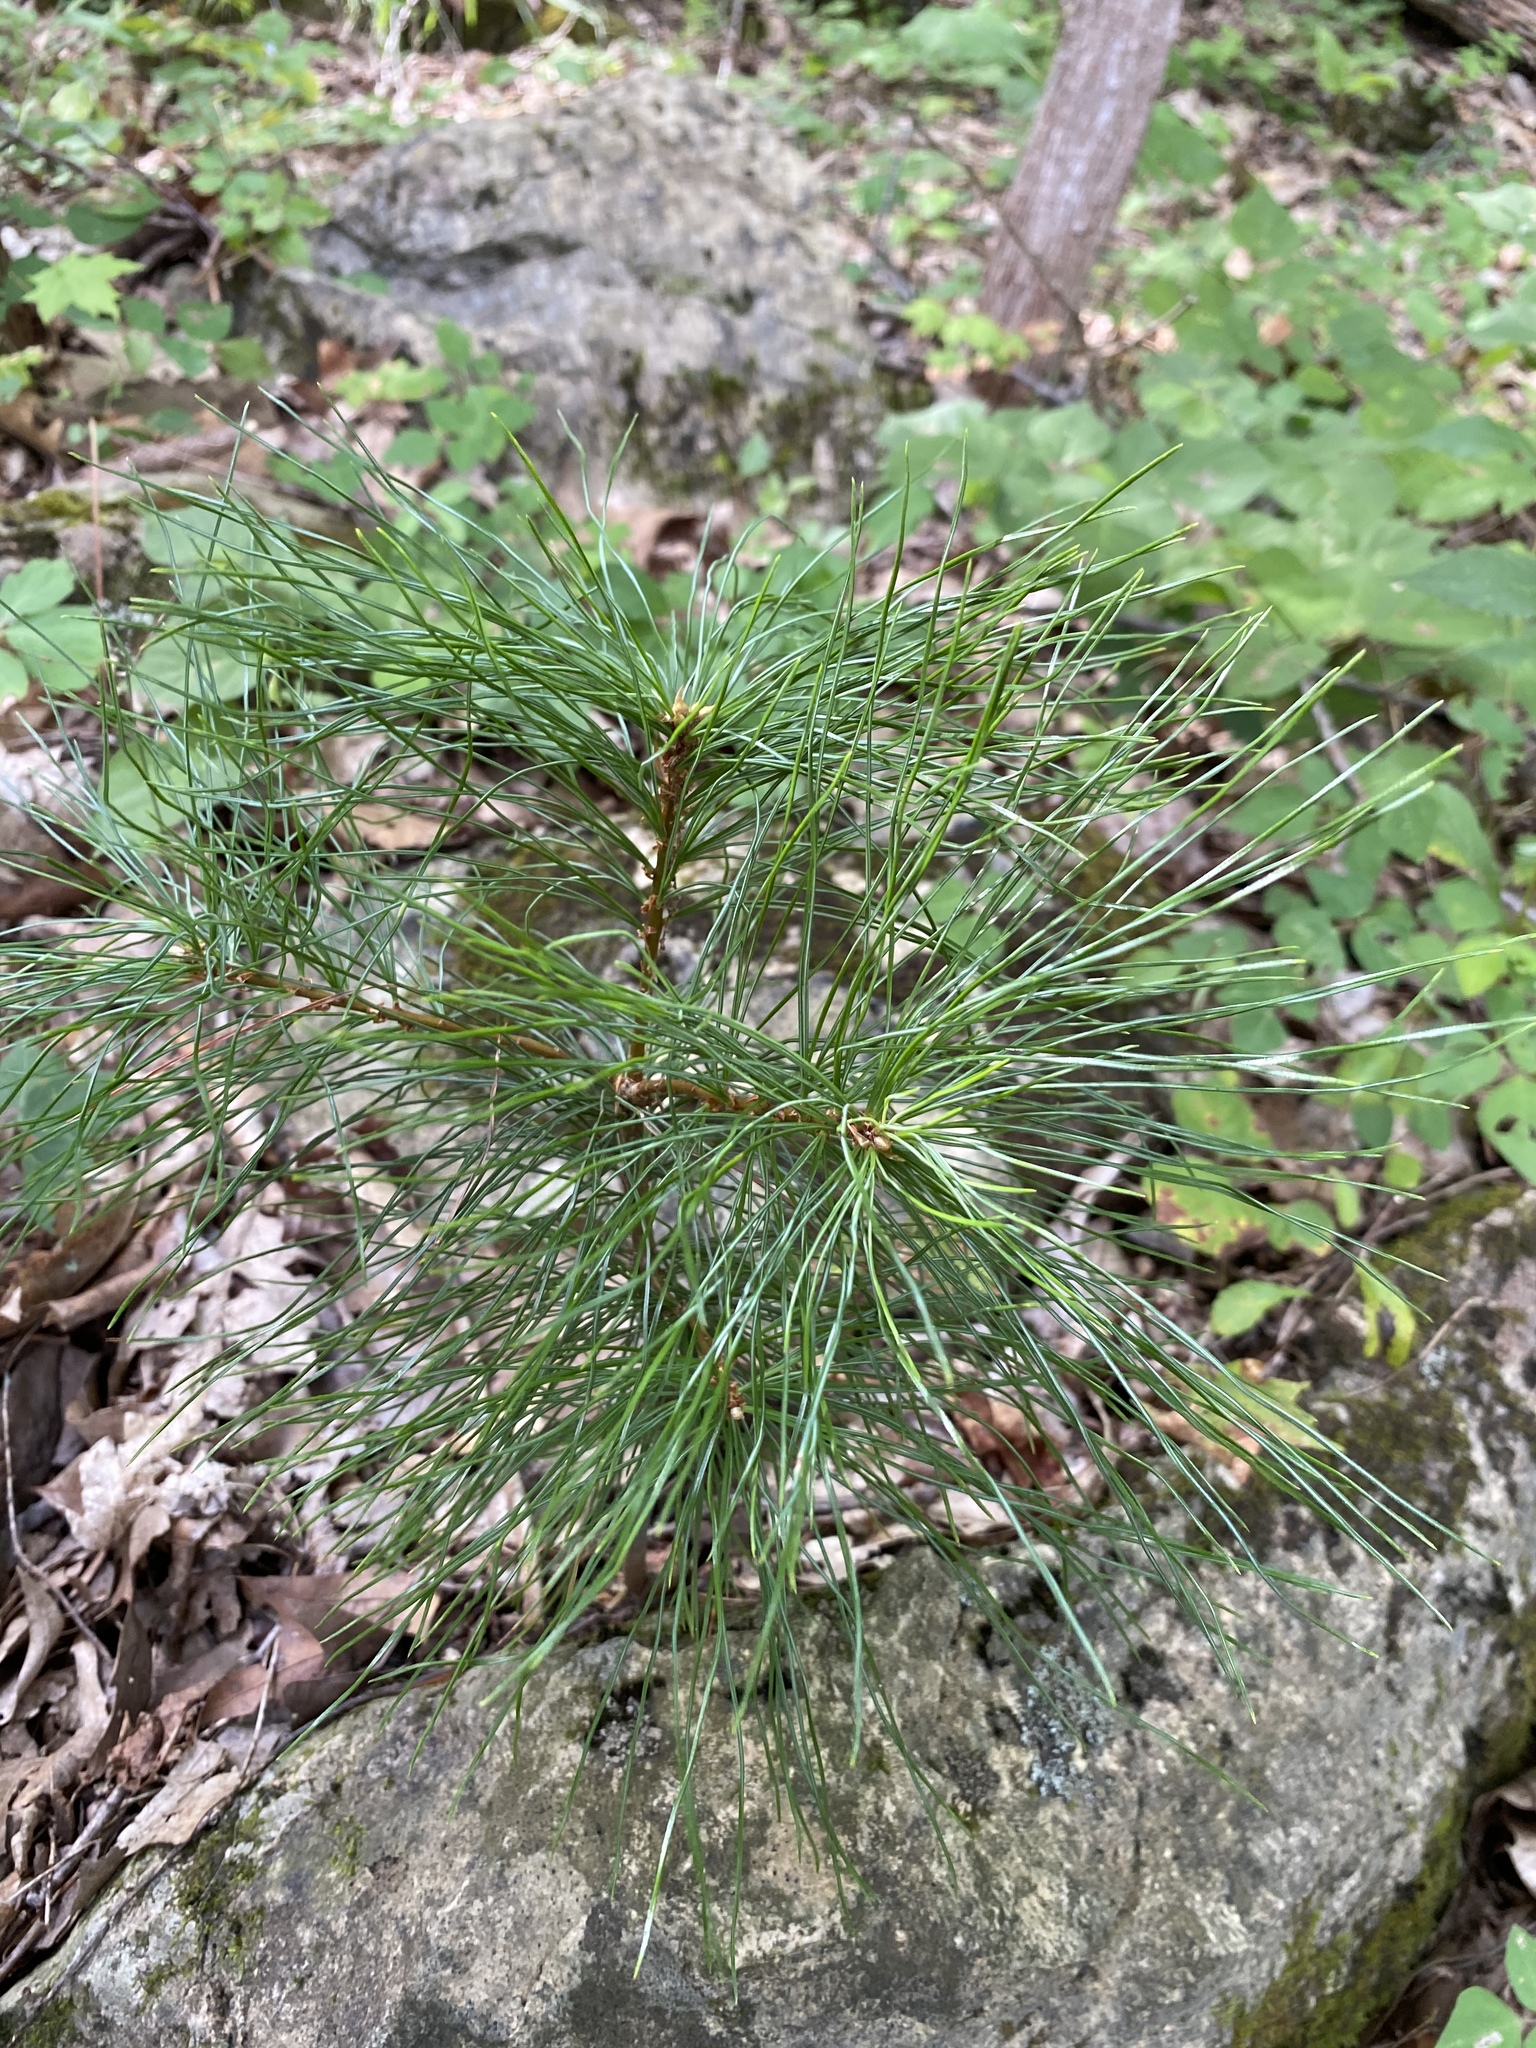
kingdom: Plantae
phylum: Tracheophyta
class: Pinopsida
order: Pinales
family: Pinaceae
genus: Pinus
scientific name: Pinus strobus
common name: Weymouth pine
